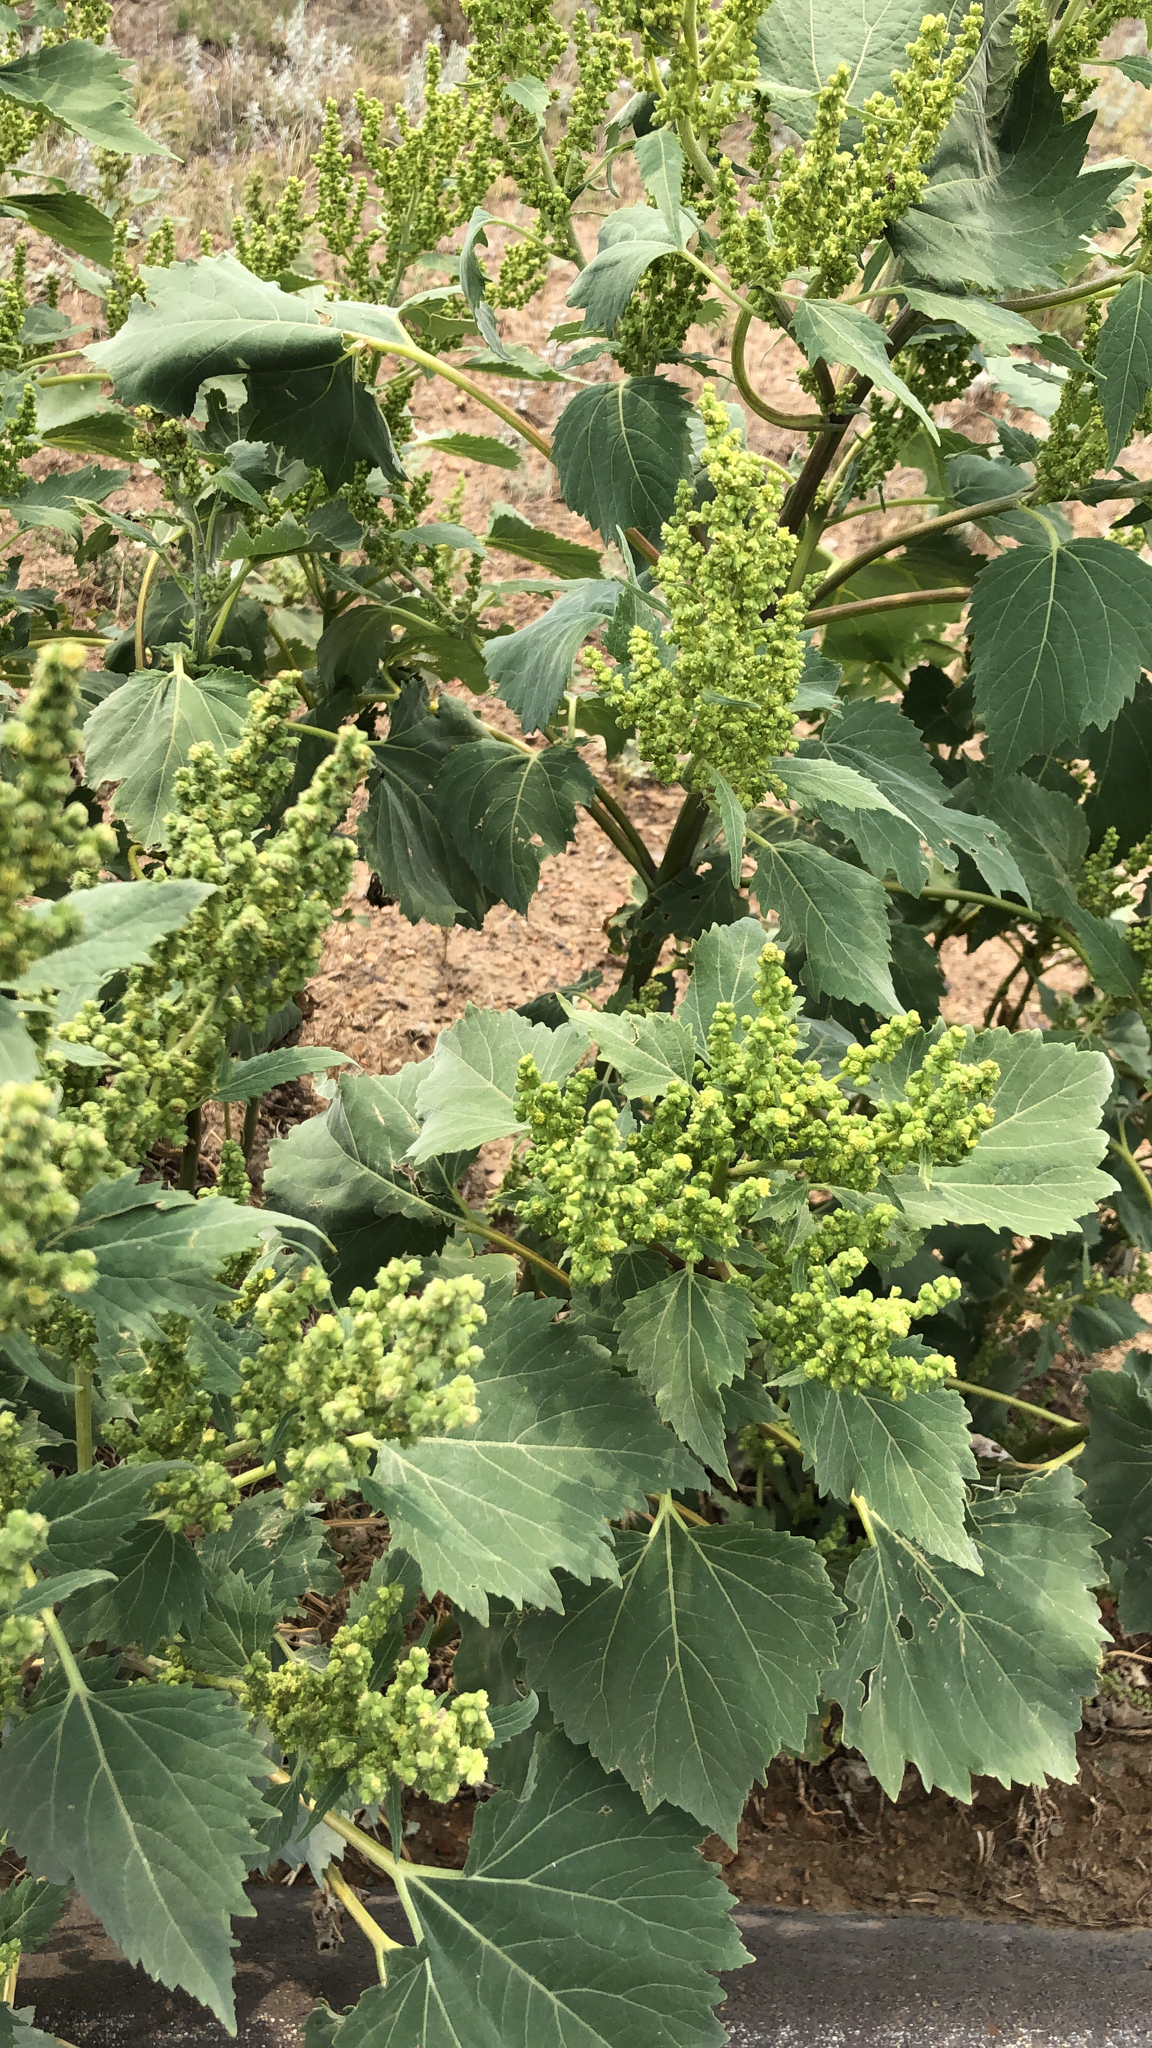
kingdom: Plantae
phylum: Tracheophyta
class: Magnoliopsida
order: Asterales
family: Asteraceae
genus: Cyclachaena
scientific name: Cyclachaena xanthiifolia
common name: Giant sumpweed
